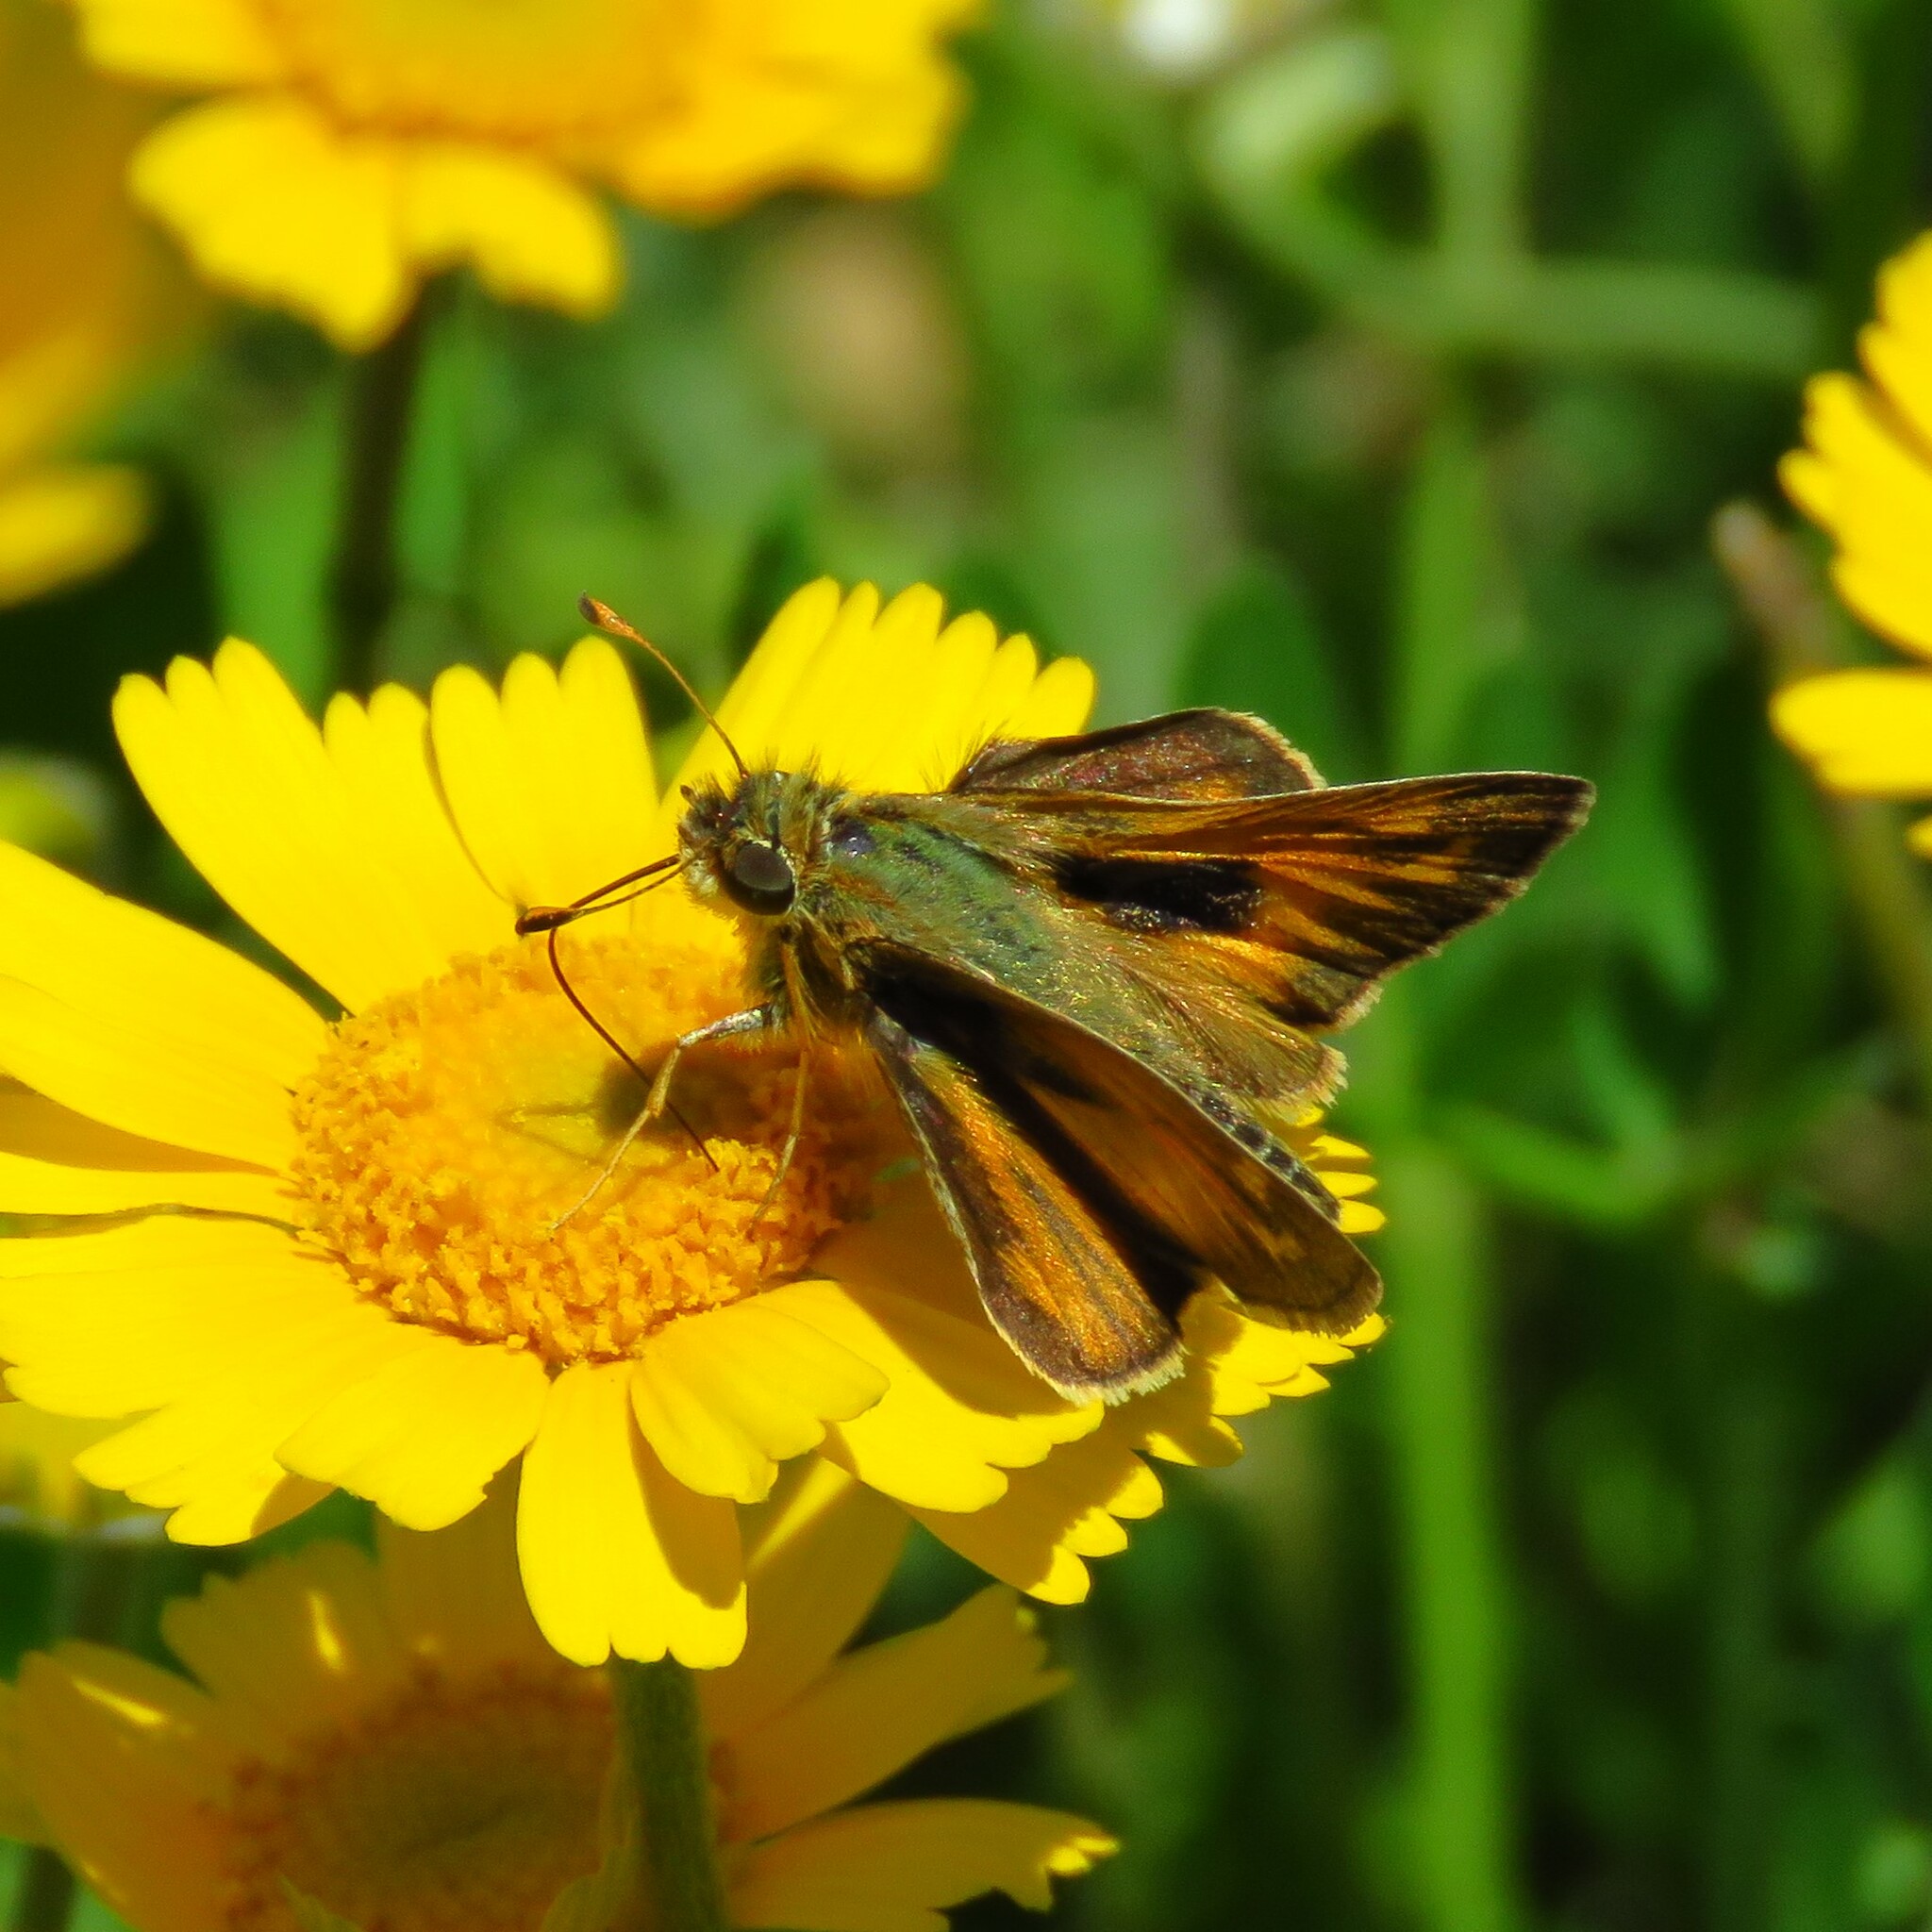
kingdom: Animalia
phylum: Arthropoda
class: Insecta
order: Lepidoptera
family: Hesperiidae
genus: Atalopedes
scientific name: Atalopedes
